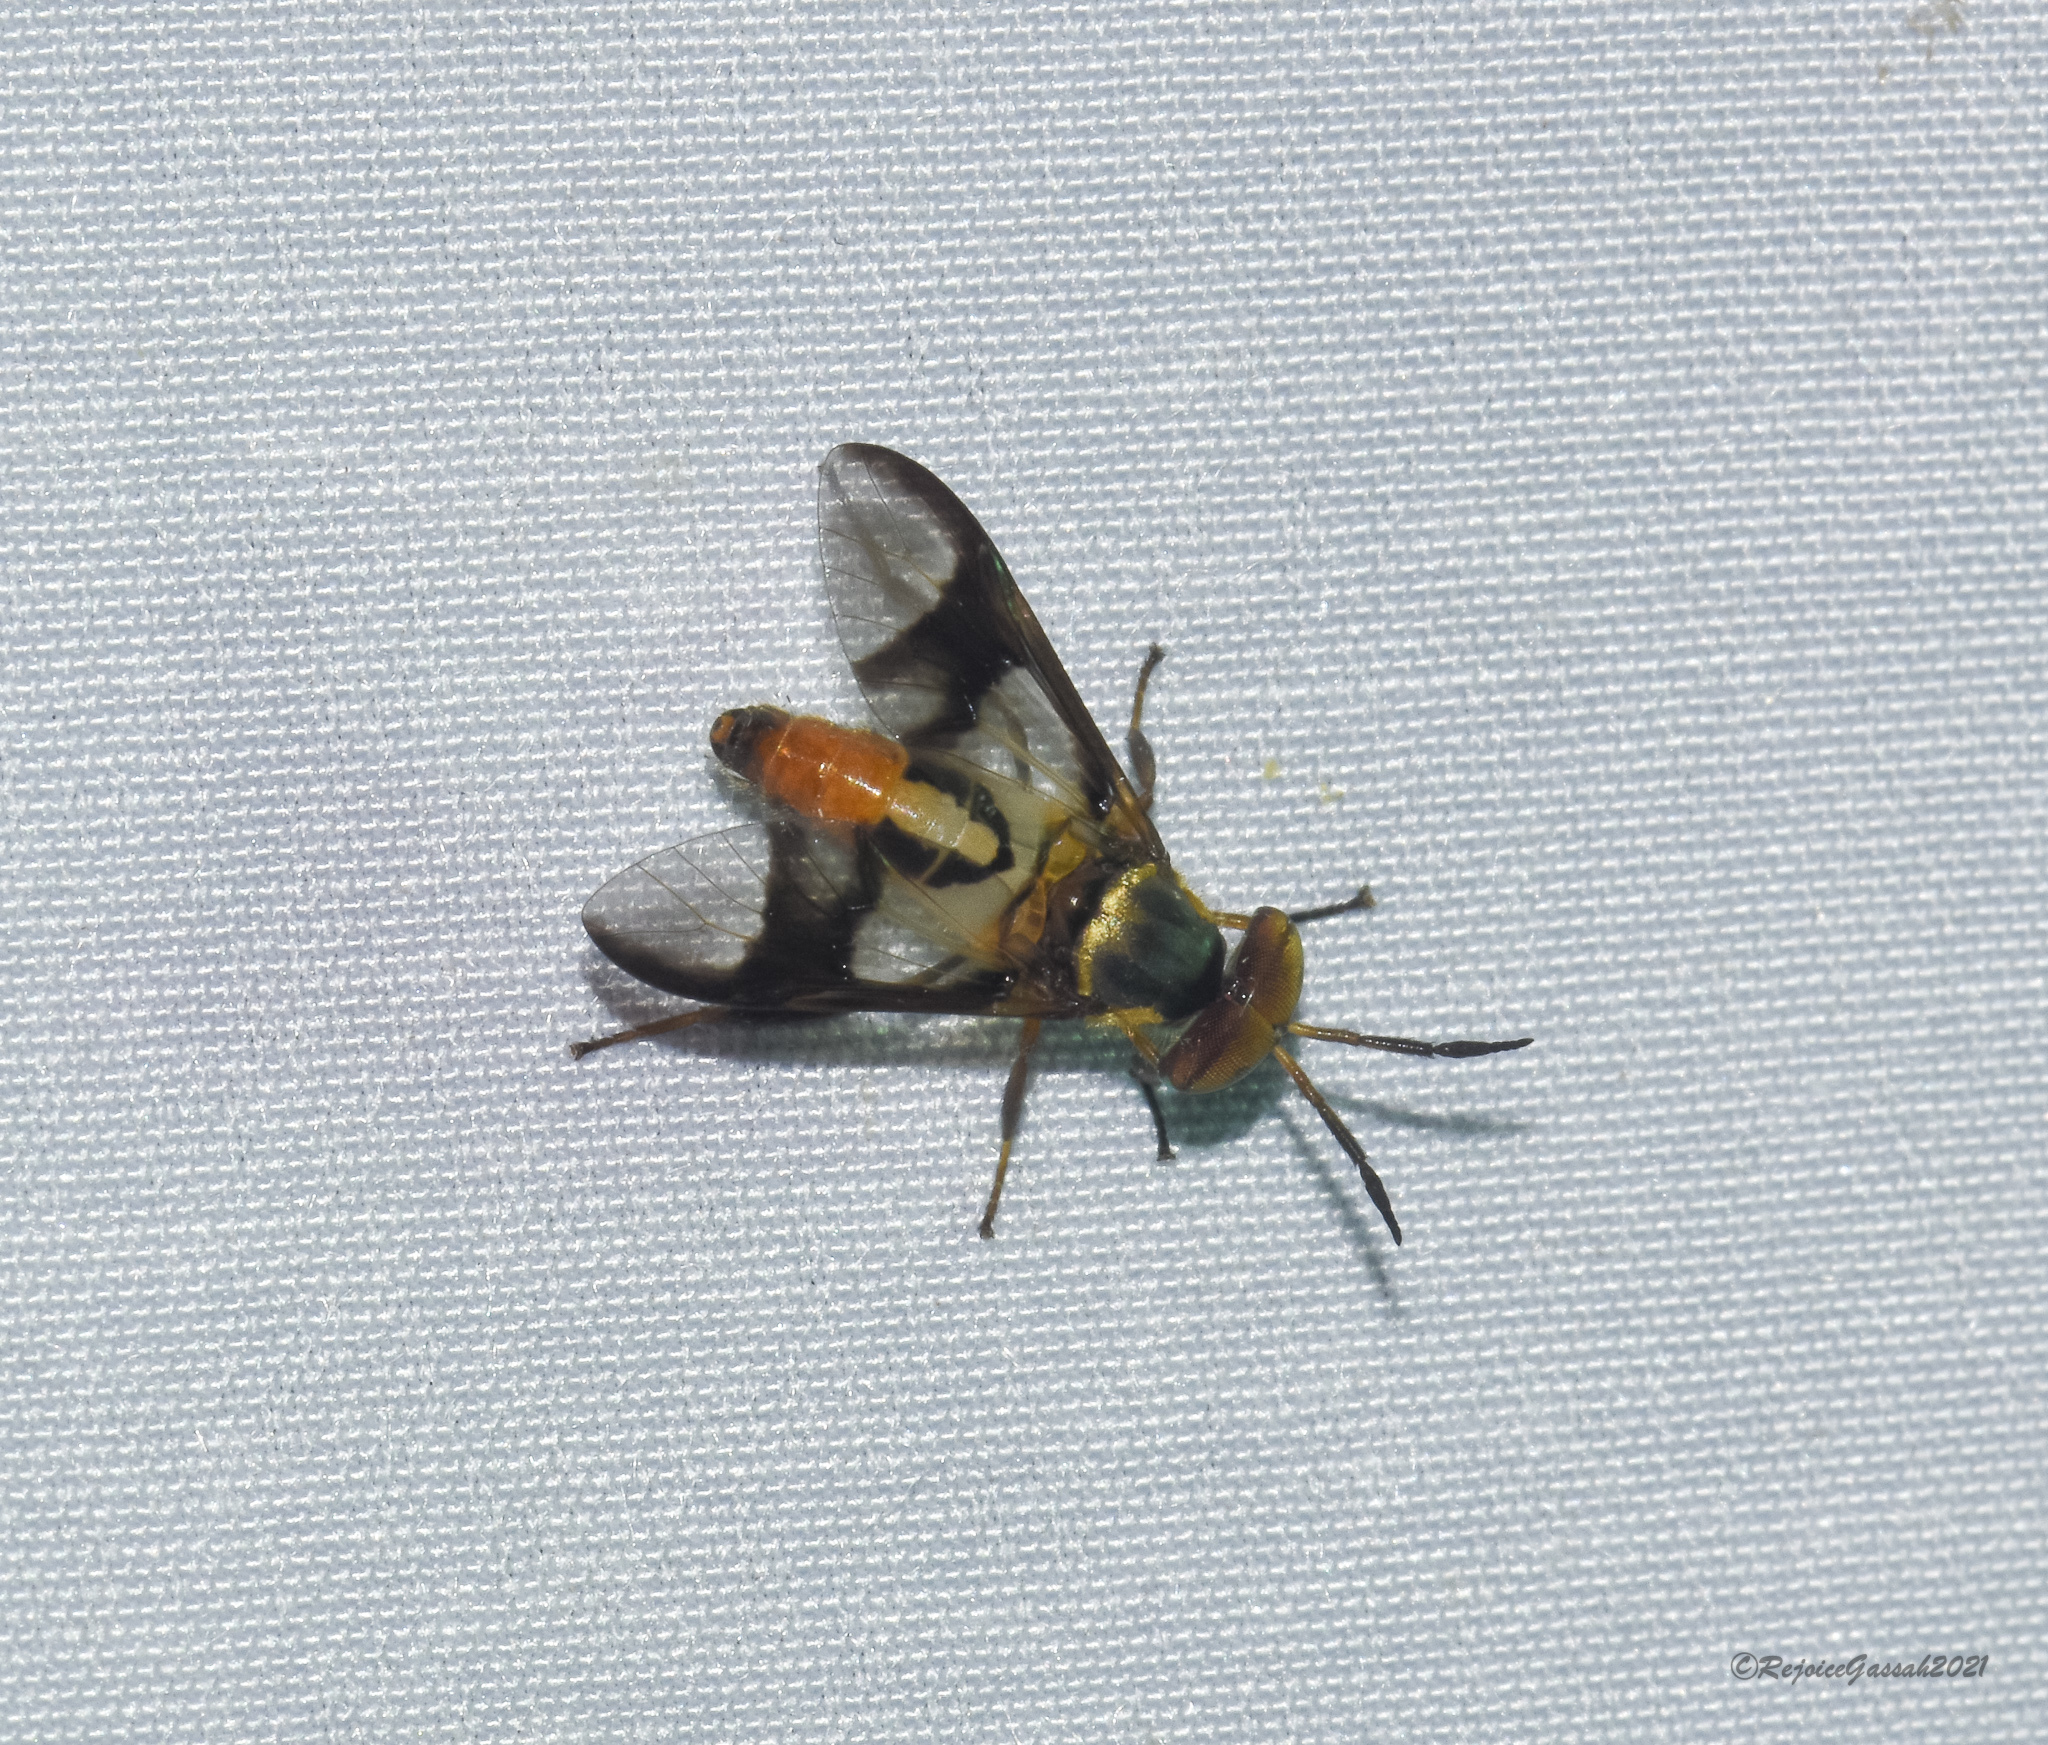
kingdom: Animalia
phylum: Arthropoda
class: Insecta
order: Diptera
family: Tabanidae
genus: Chrysops
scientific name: Chrysops dispar
